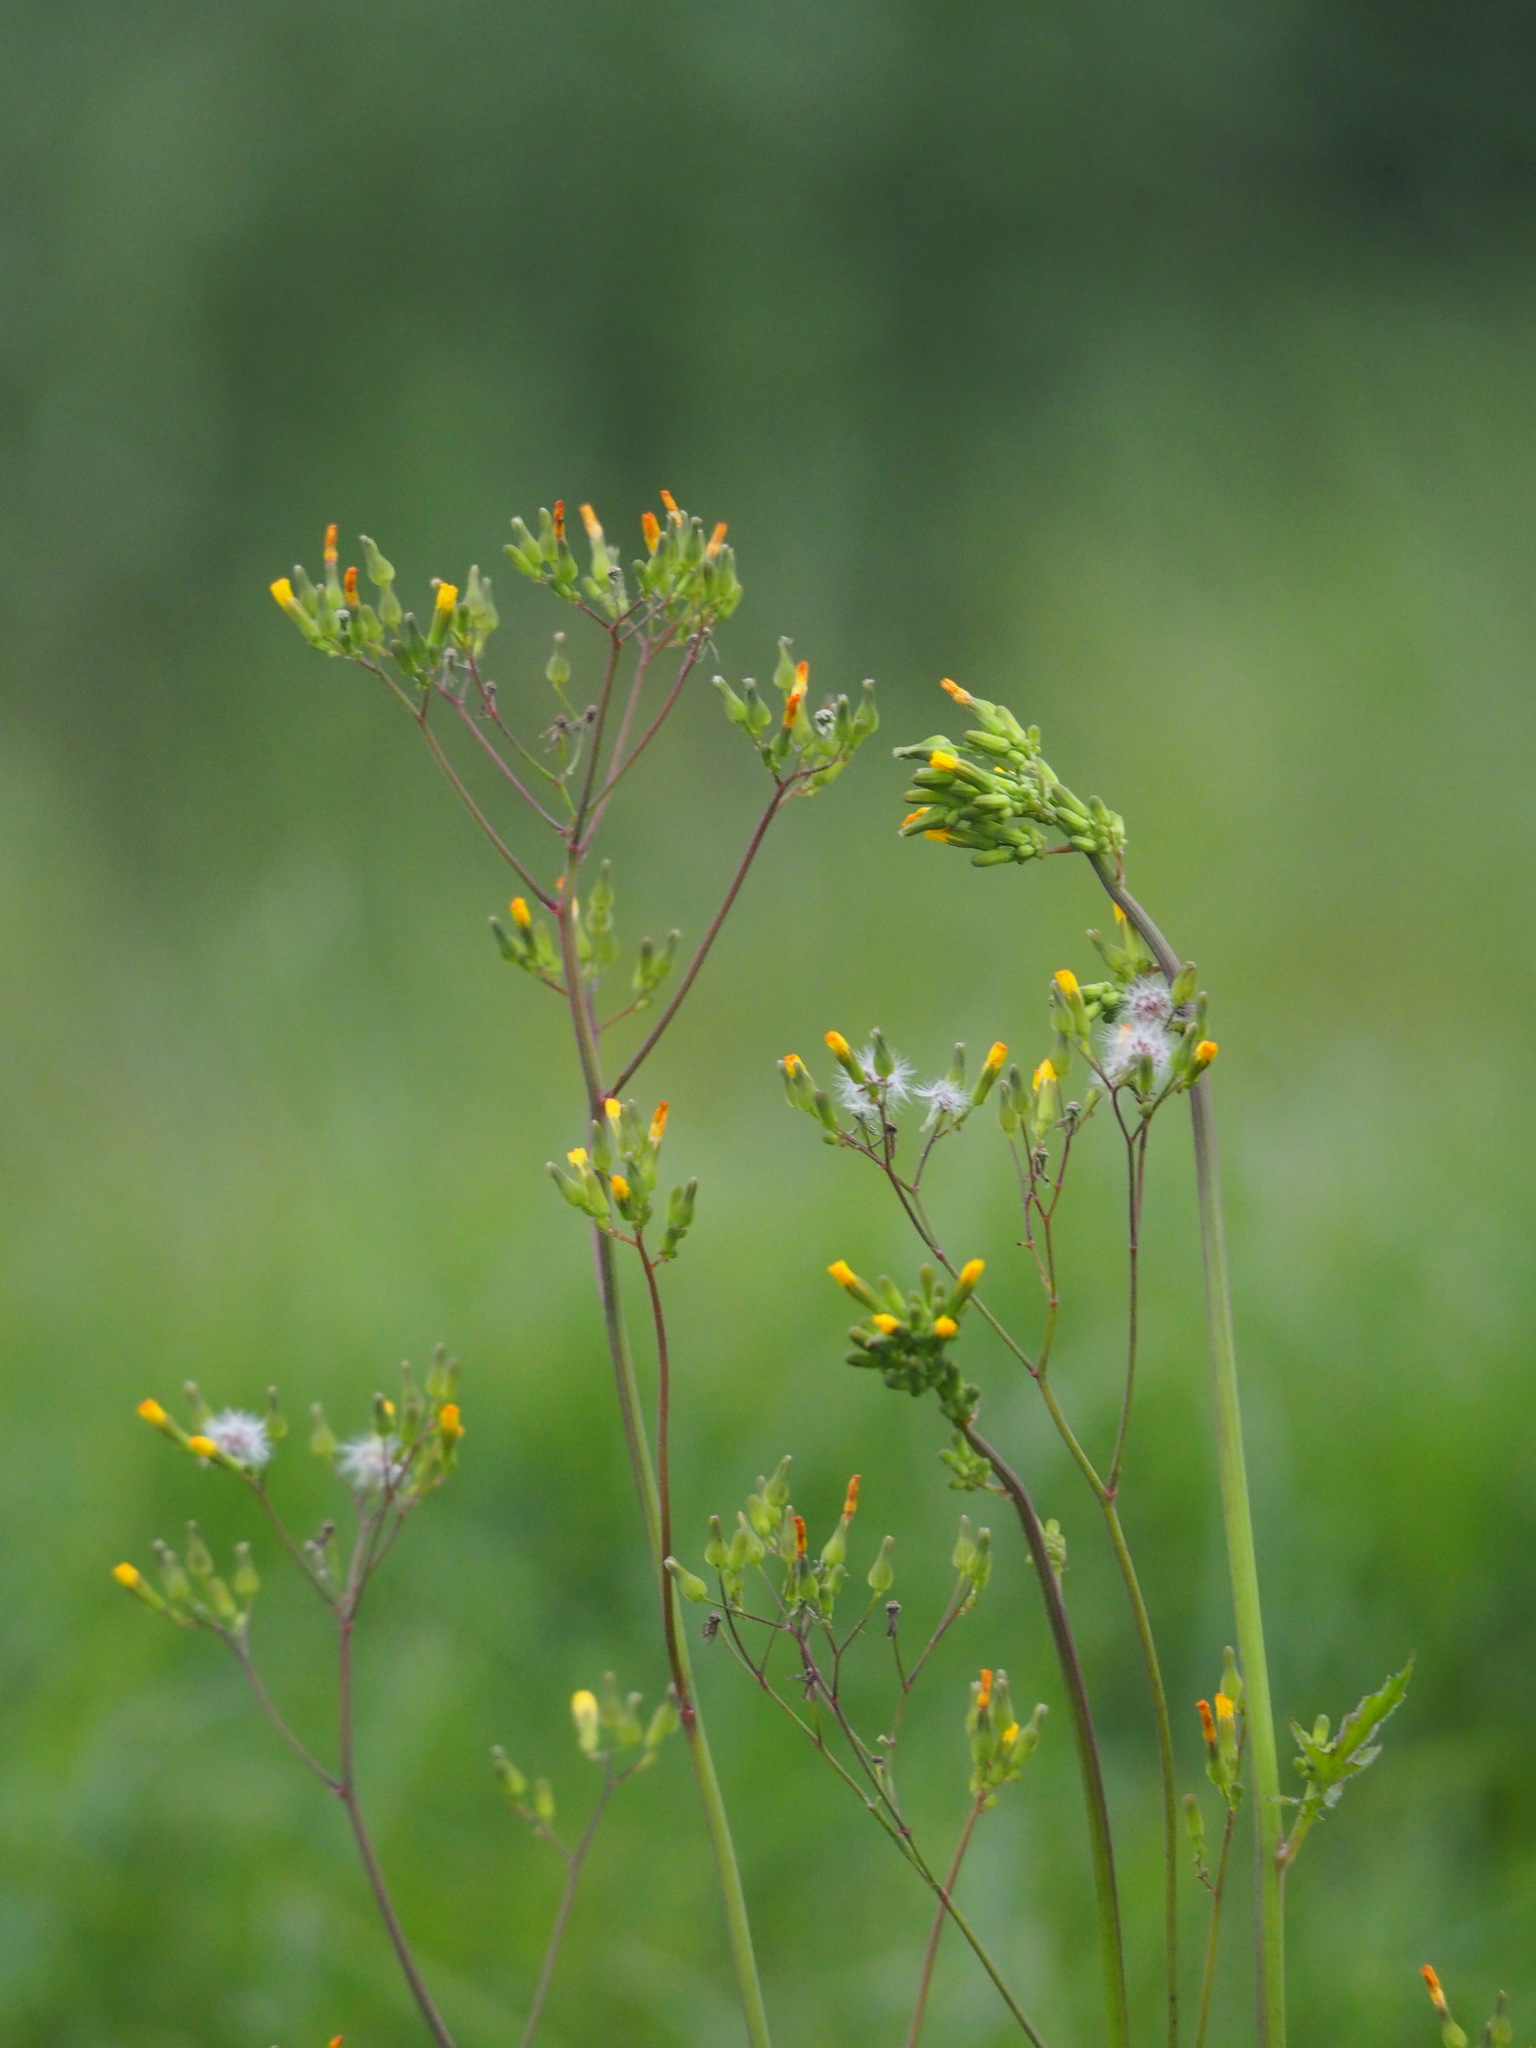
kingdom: Plantae
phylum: Tracheophyta
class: Magnoliopsida
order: Asterales
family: Asteraceae
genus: Youngia
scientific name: Youngia japonica
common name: Oriental false hawksbeard
